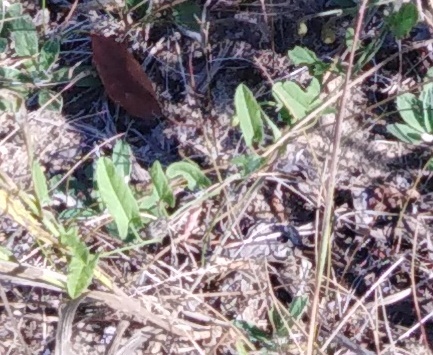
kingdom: Plantae
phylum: Tracheophyta
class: Magnoliopsida
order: Solanales
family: Convolvulaceae
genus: Convolvulus
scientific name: Convolvulus arvensis
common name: Field bindweed
